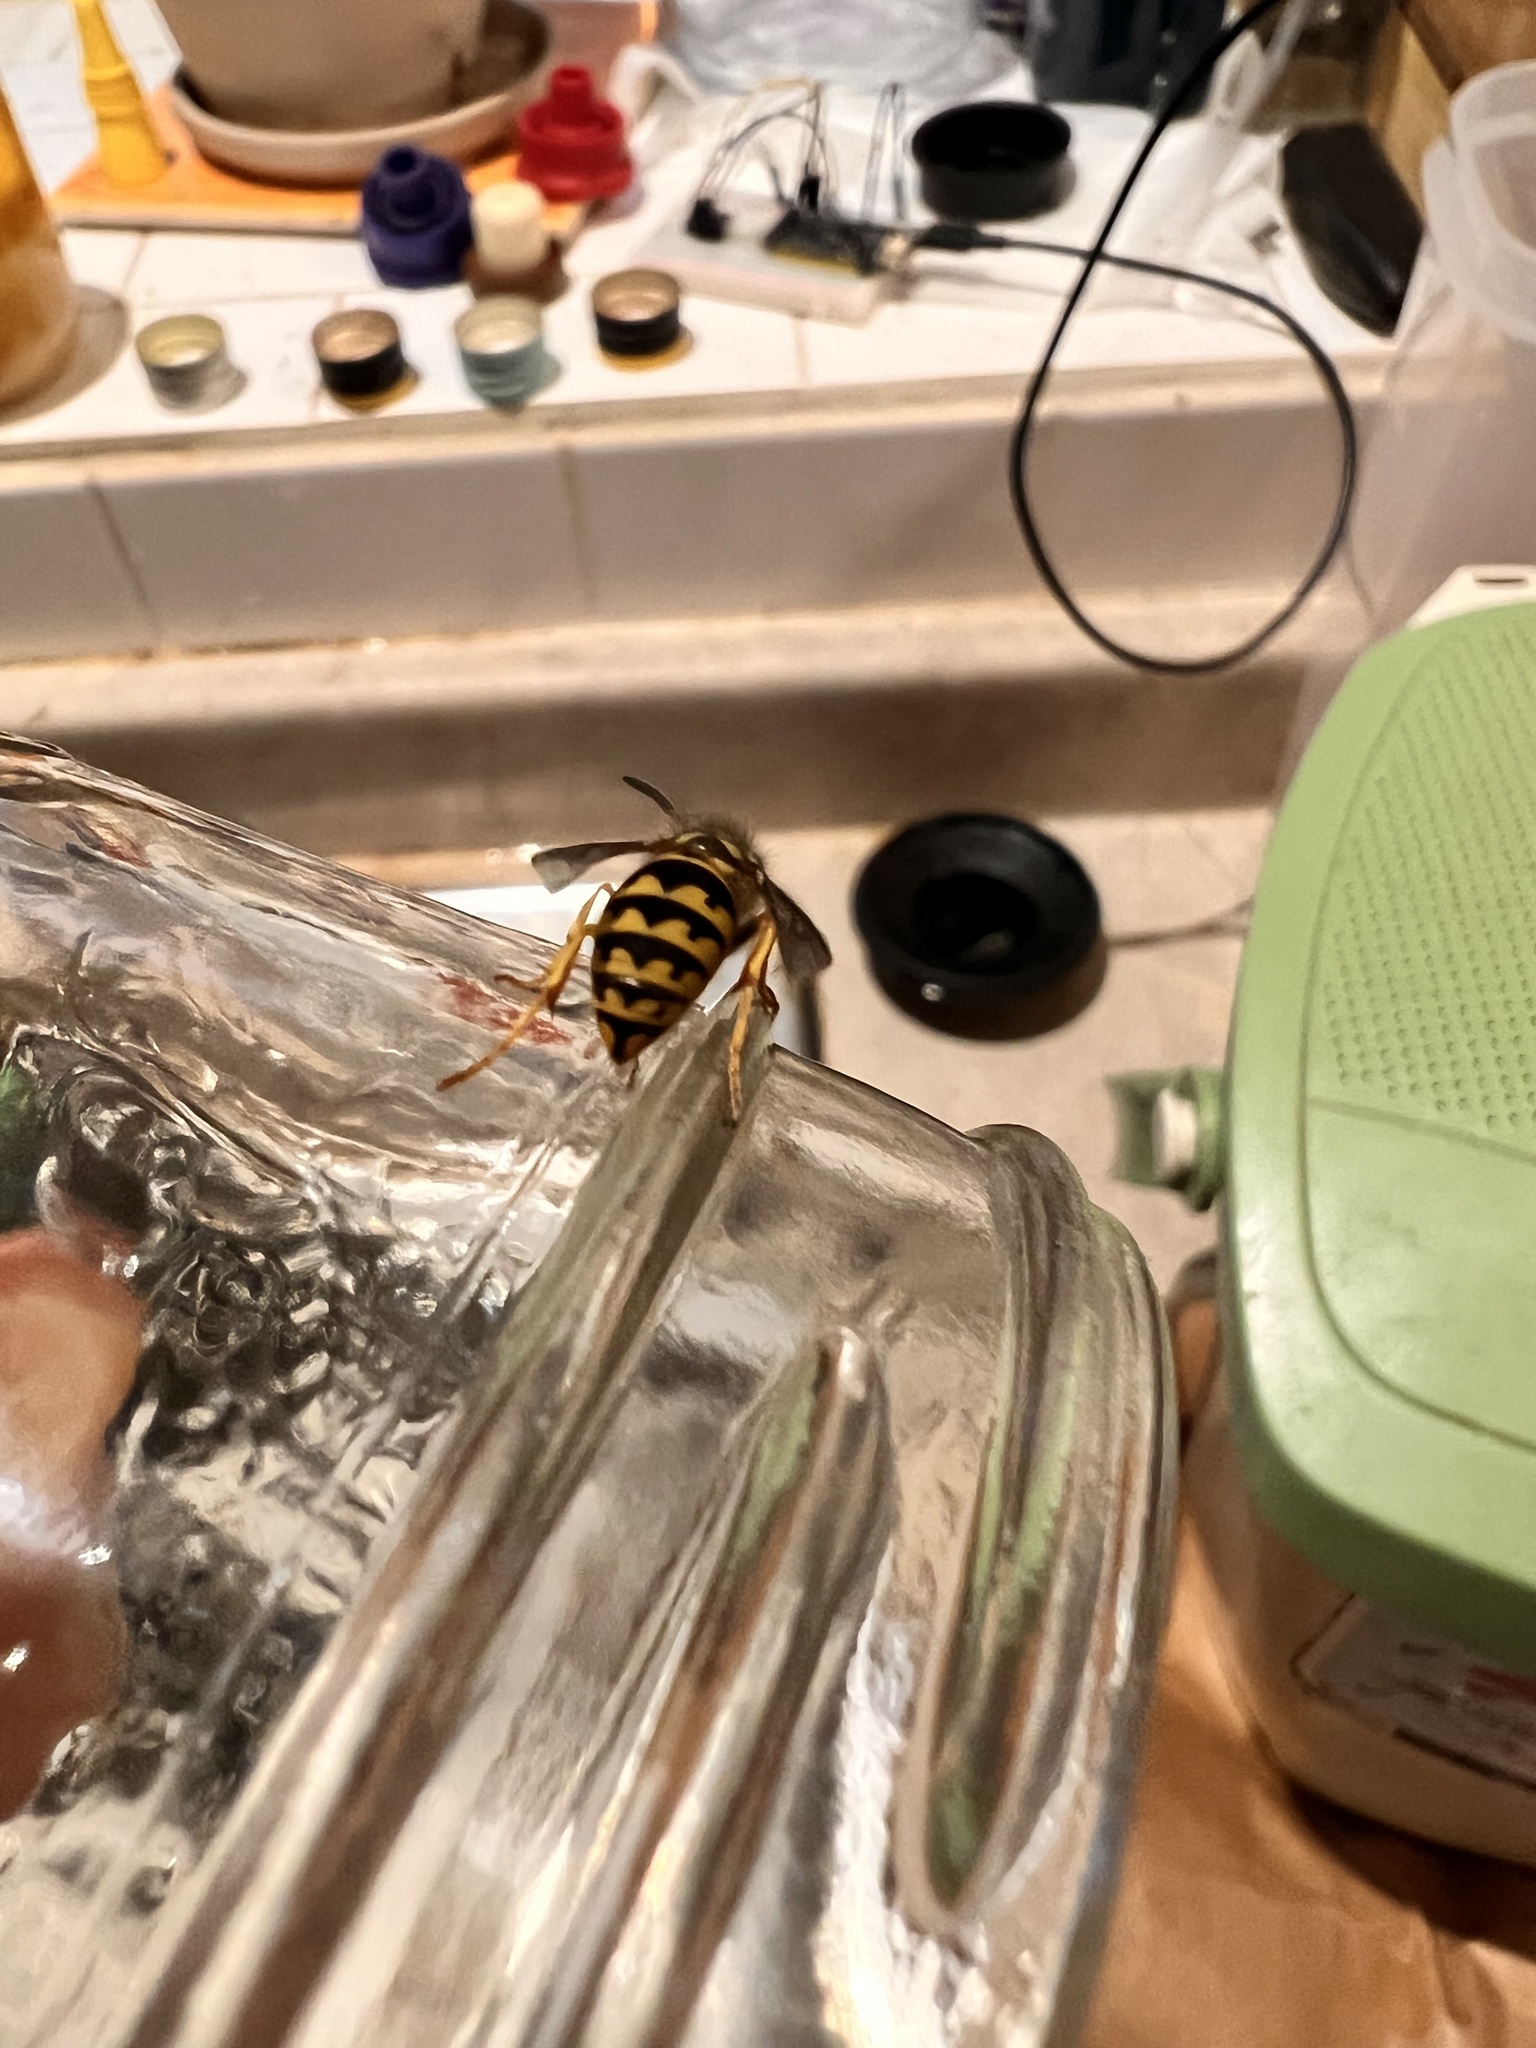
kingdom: Animalia
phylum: Arthropoda
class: Insecta
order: Hymenoptera
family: Vespidae
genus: Vespula
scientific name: Vespula pensylvanica
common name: Western yellowjacket
